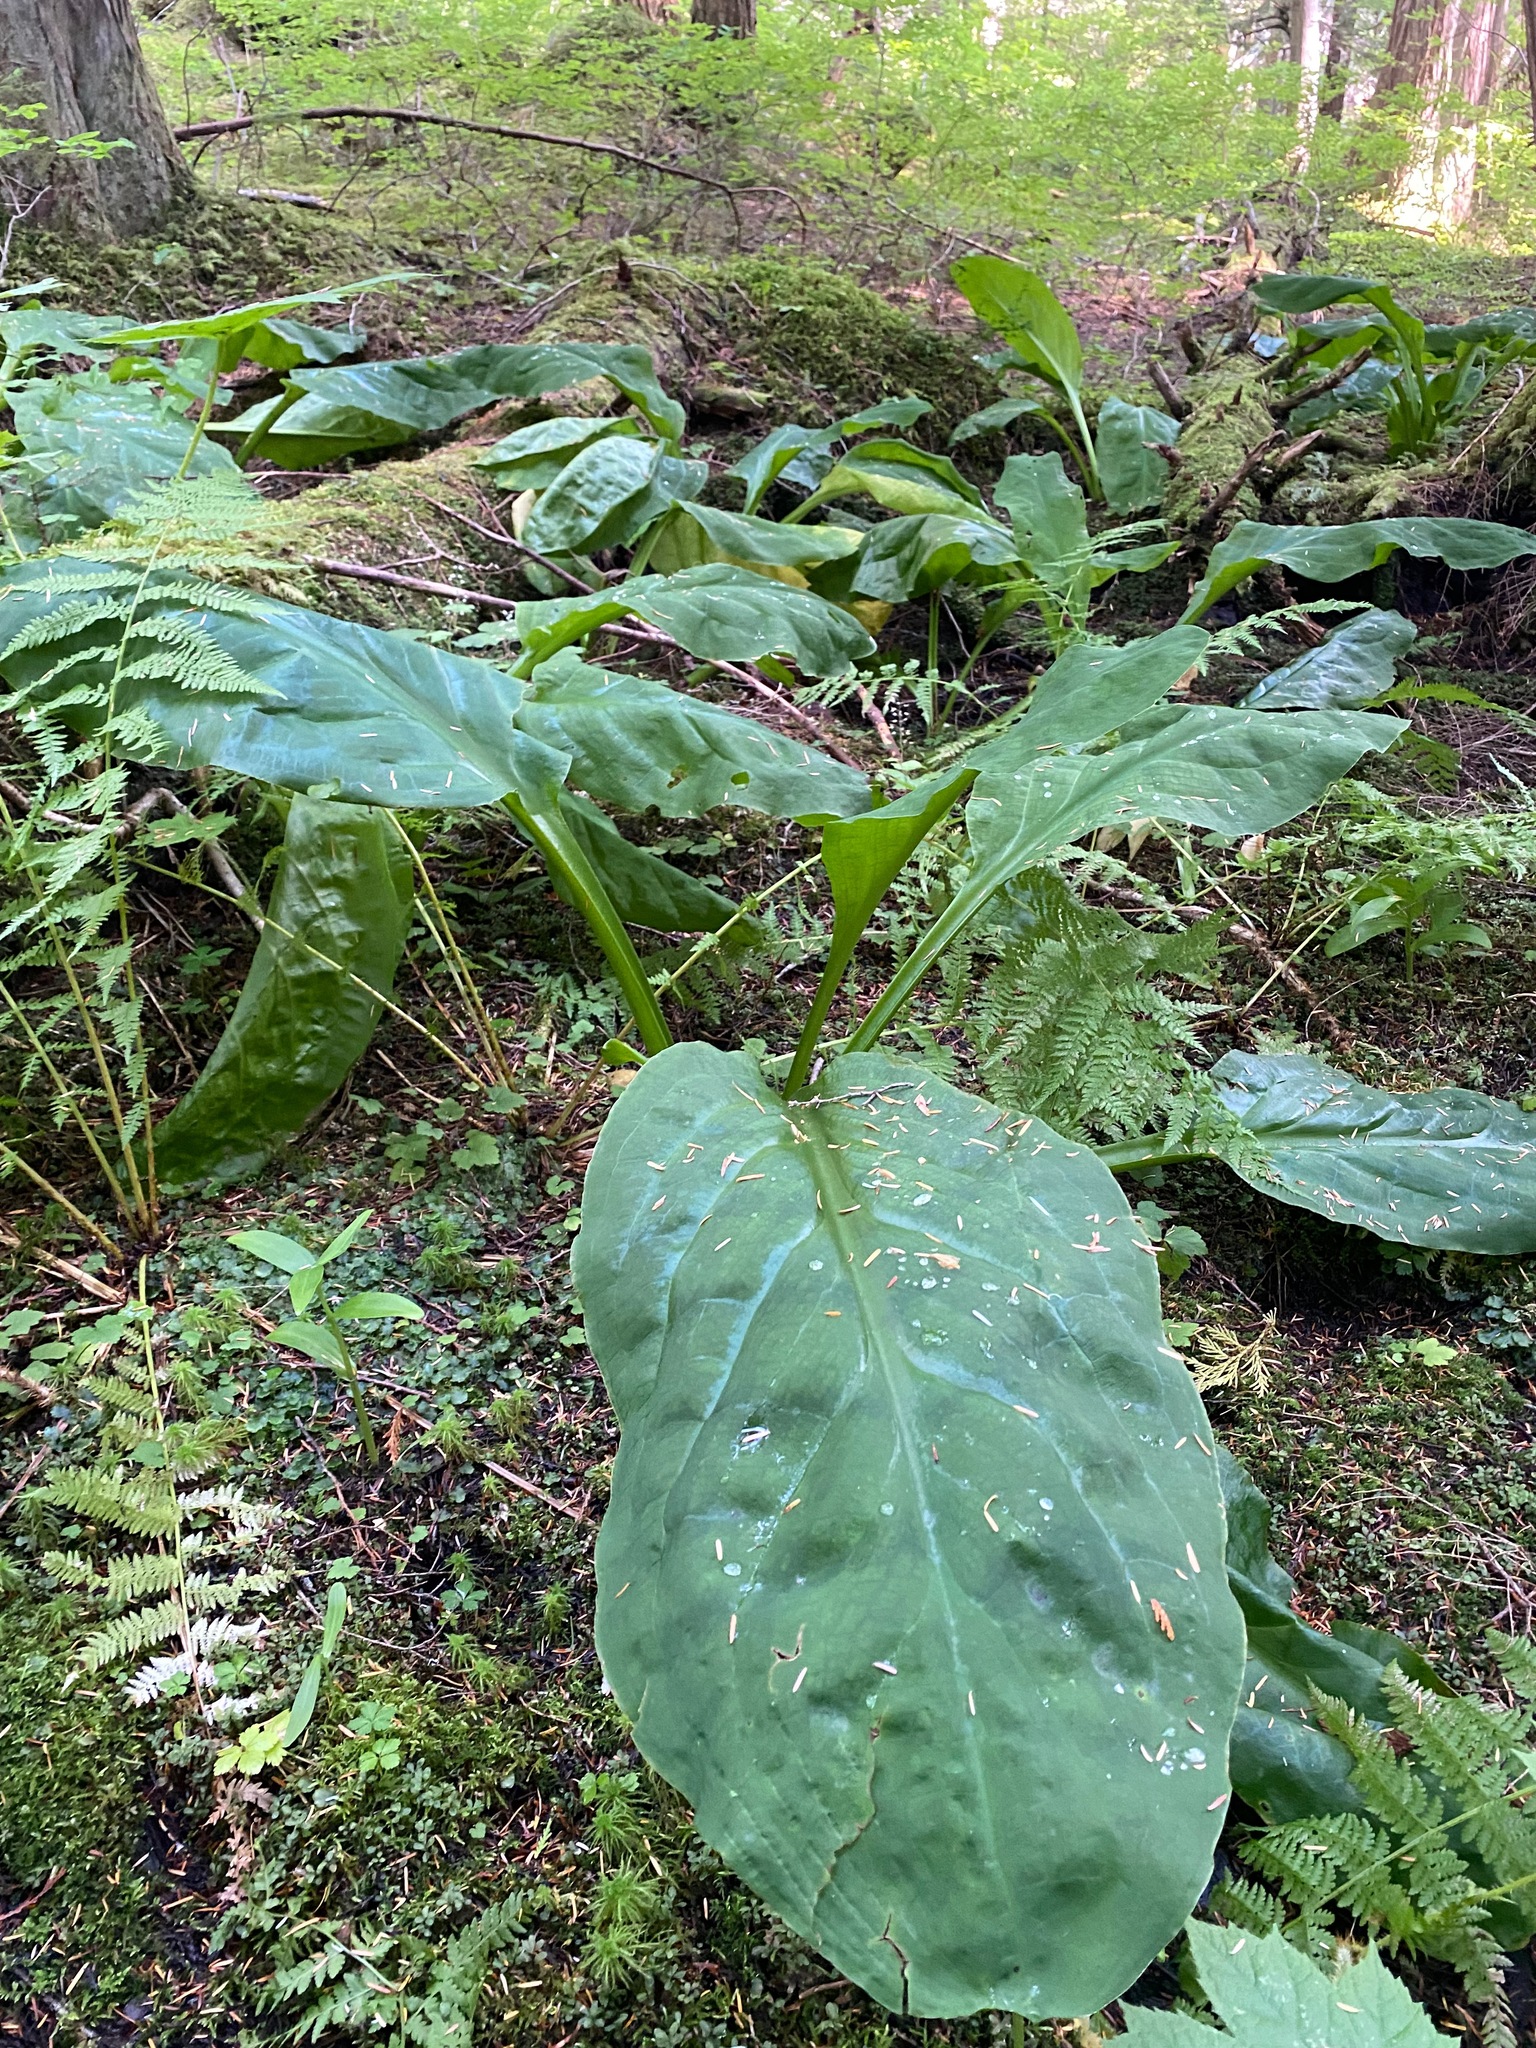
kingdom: Plantae
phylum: Tracheophyta
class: Liliopsida
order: Alismatales
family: Araceae
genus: Lysichiton
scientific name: Lysichiton americanus
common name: American skunk cabbage
